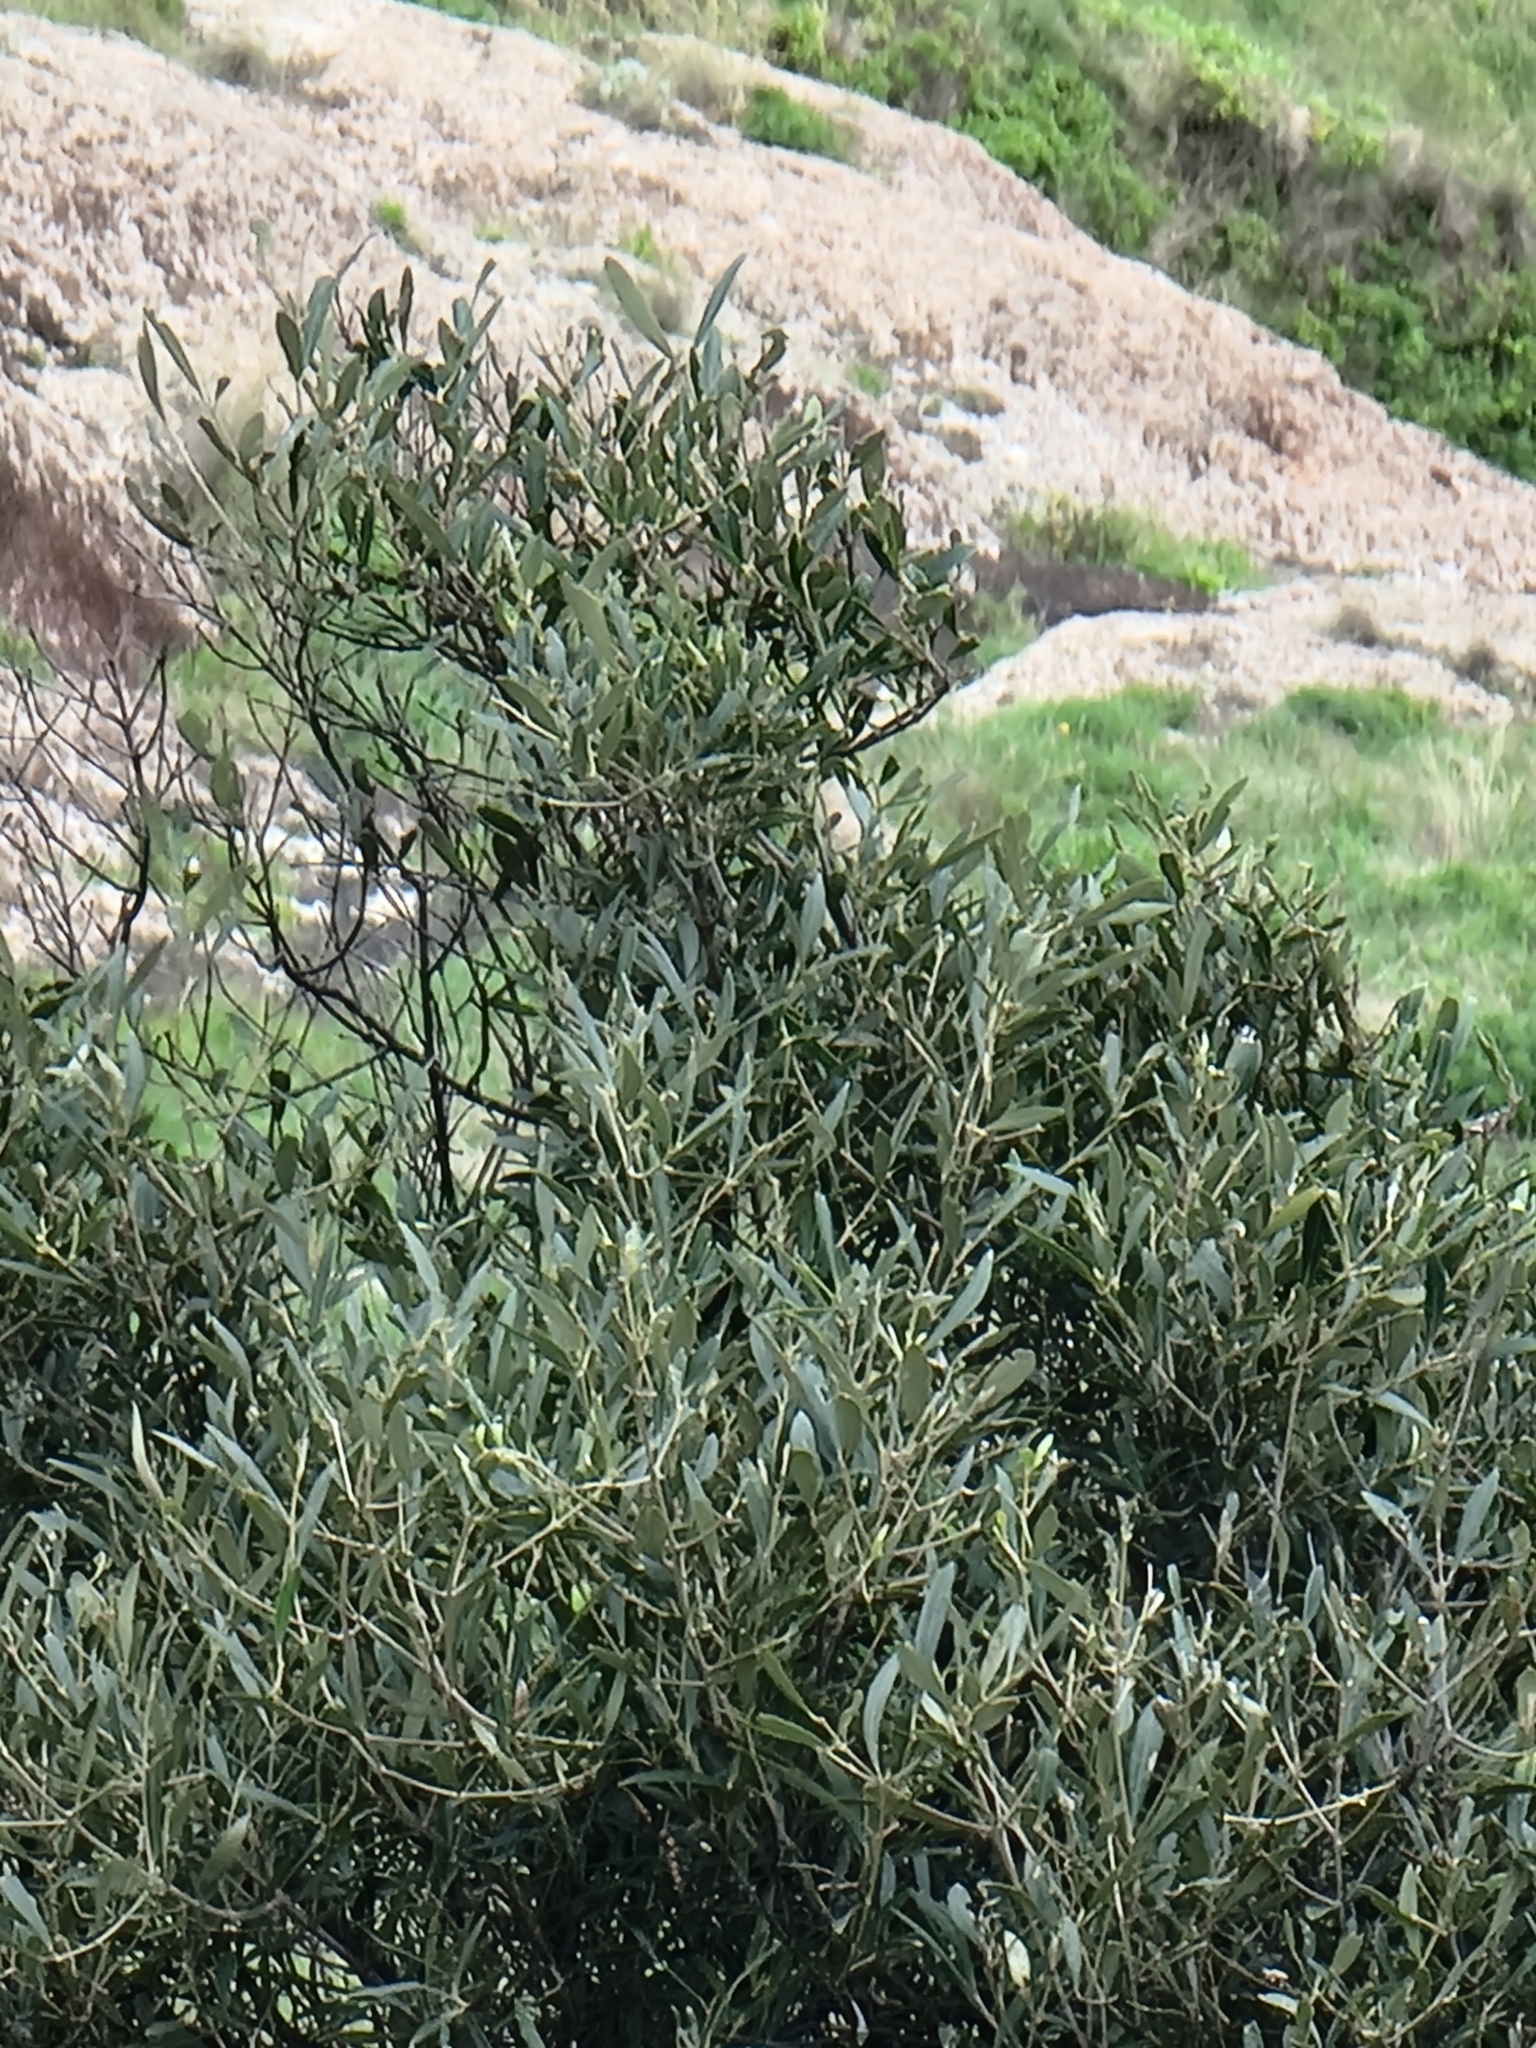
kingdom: Plantae
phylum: Tracheophyta
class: Magnoliopsida
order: Lamiales
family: Oleaceae
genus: Olea
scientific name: Olea europaea
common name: Olive
